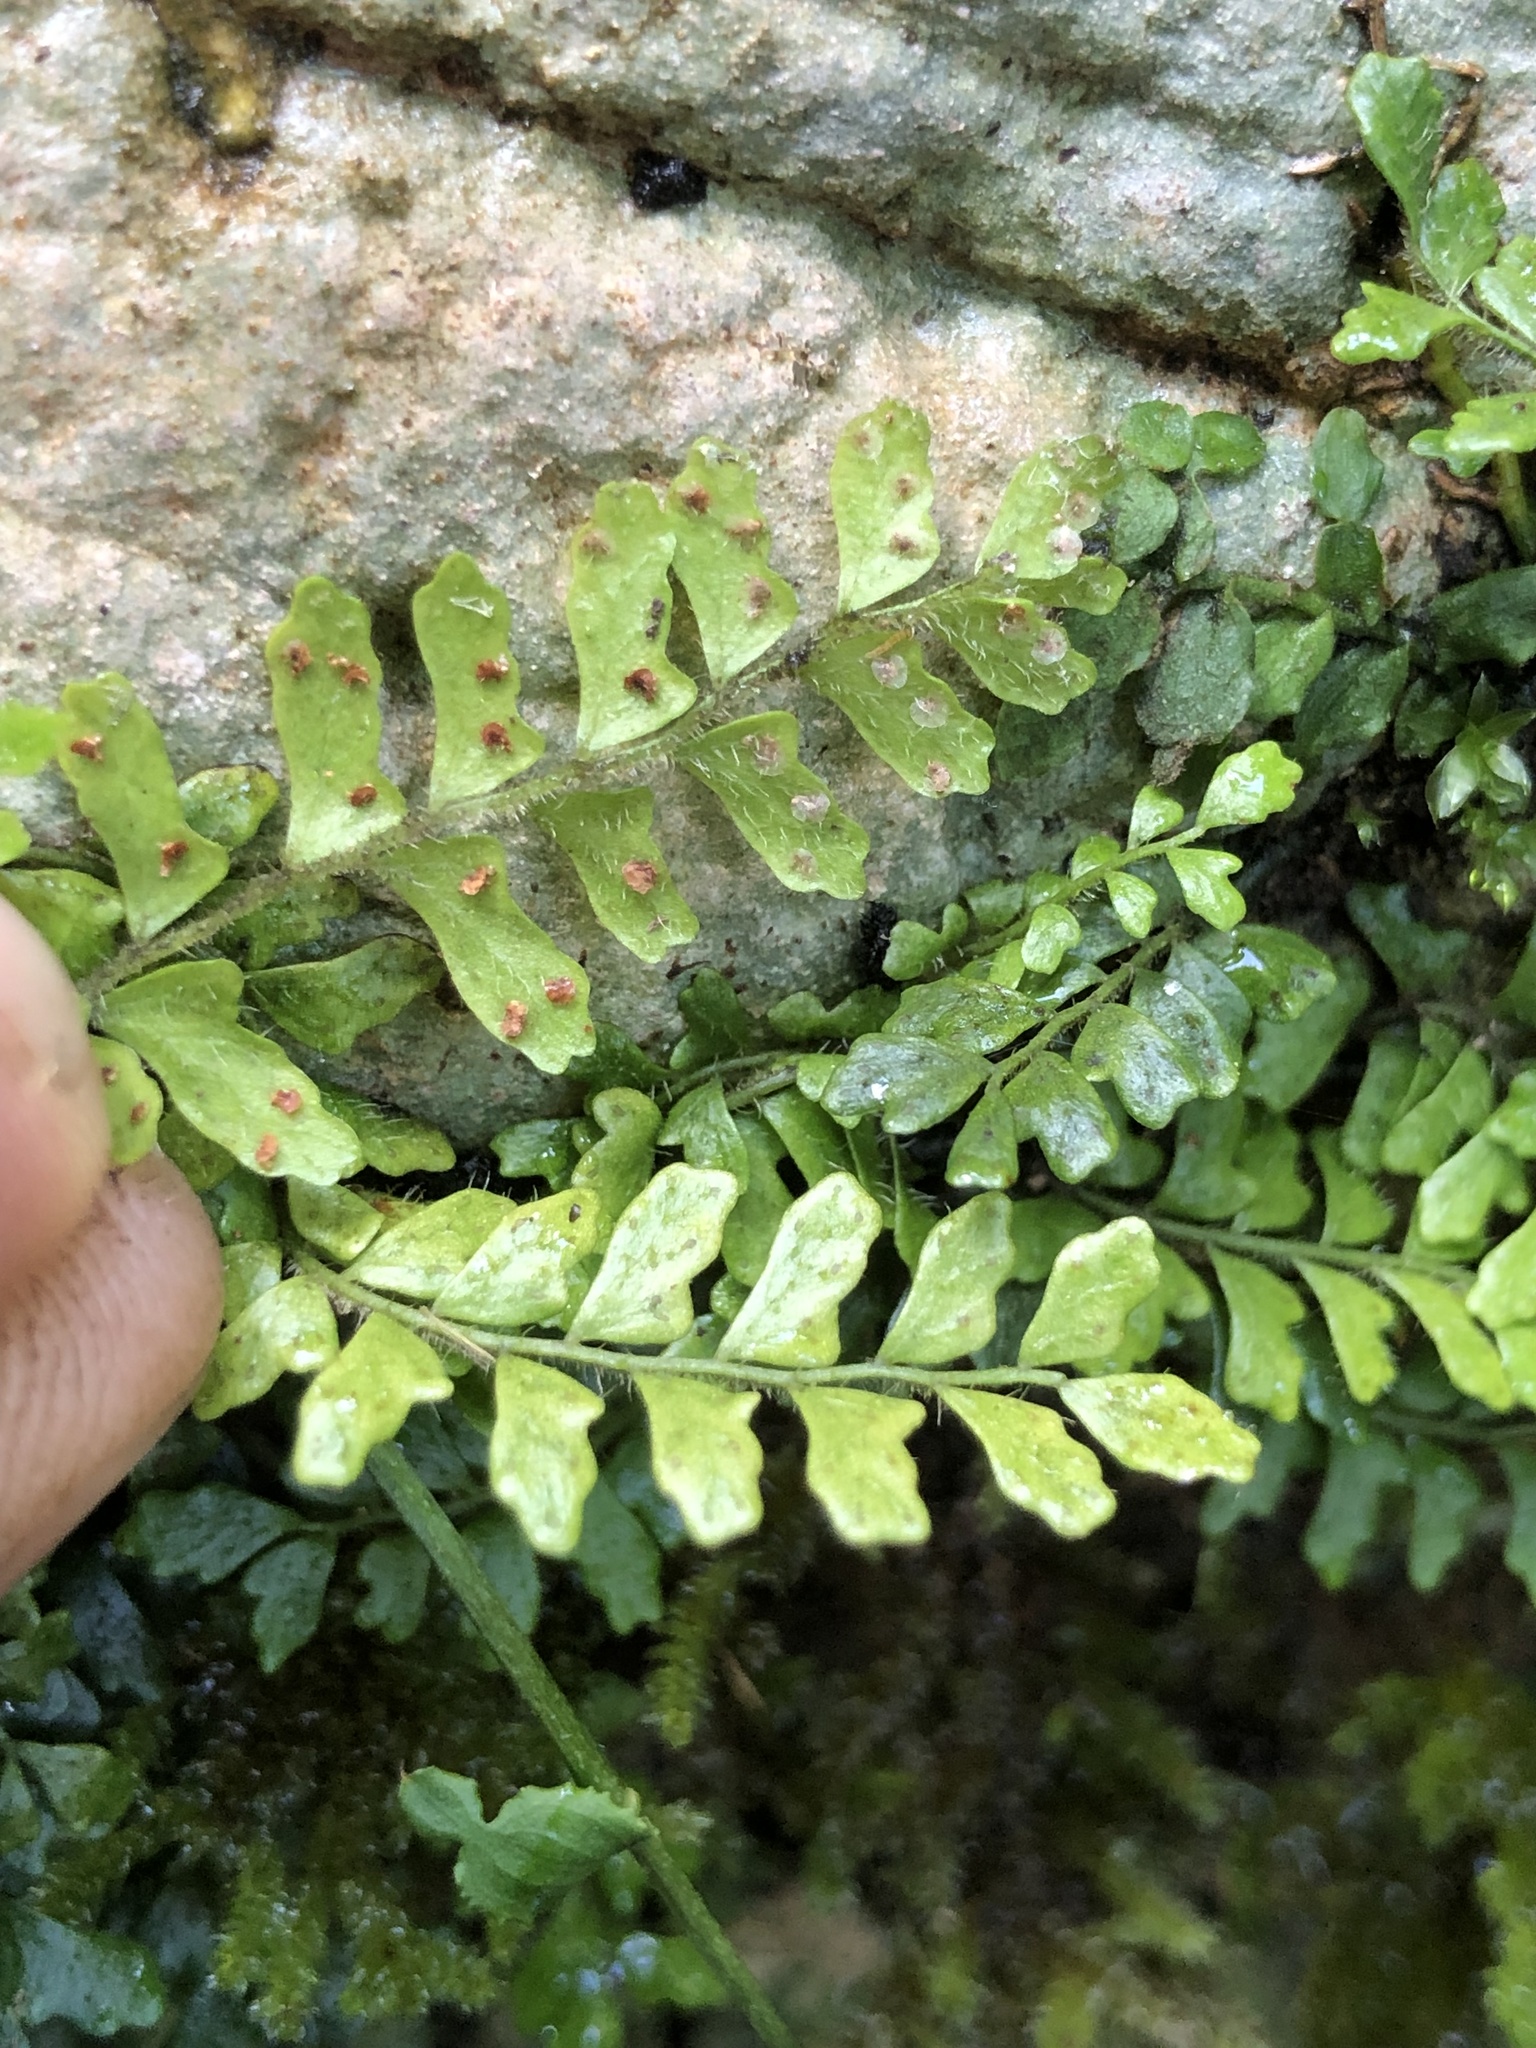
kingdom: Plantae
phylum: Tracheophyta
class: Polypodiopsida
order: Polypodiales
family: Tectariaceae
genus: Arthropteris
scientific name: Arthropteris beckleri
